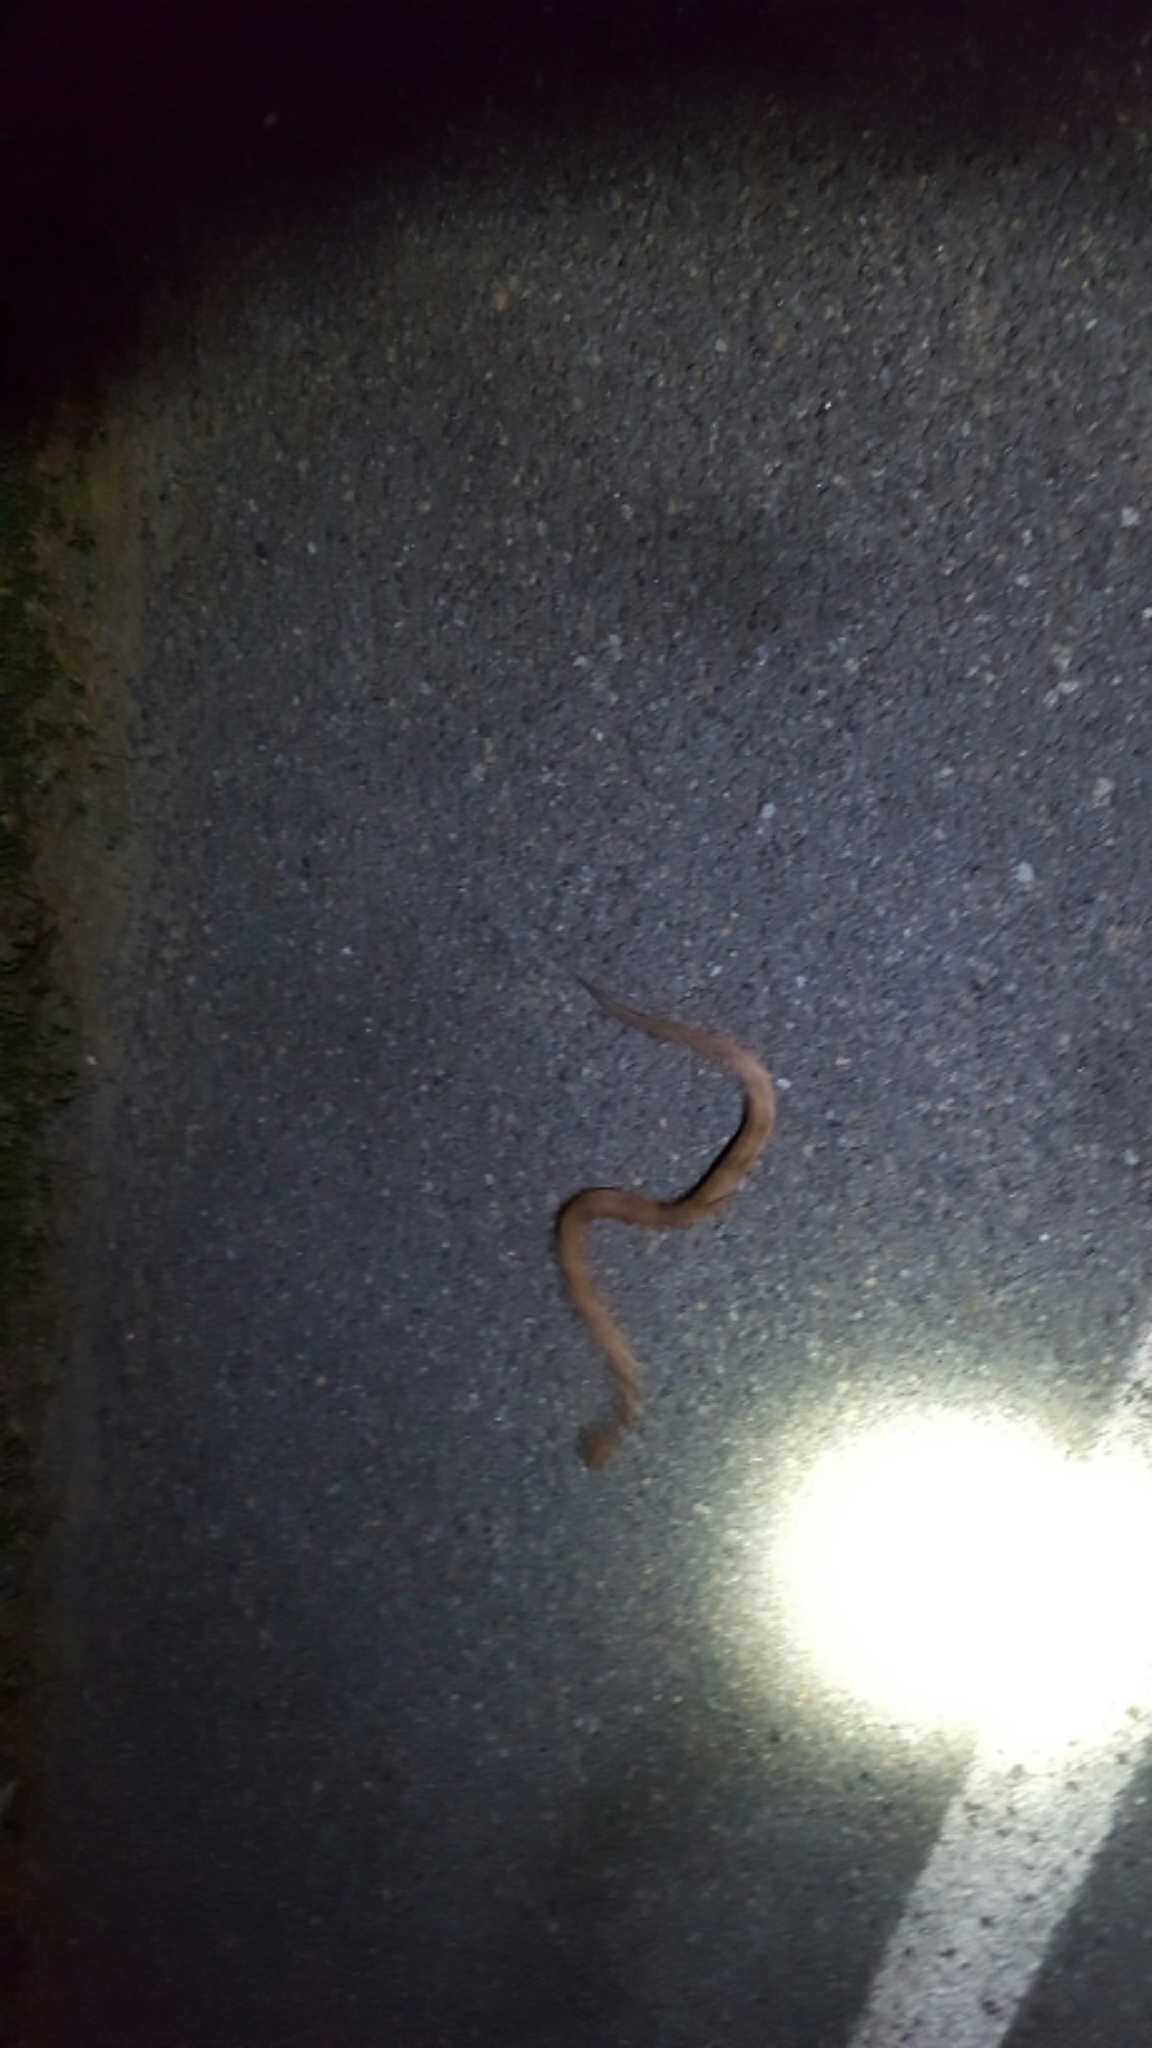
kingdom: Animalia
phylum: Chordata
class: Squamata
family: Viperidae
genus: Agkistrodon
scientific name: Agkistrodon contortrix
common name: Northern copperhead
